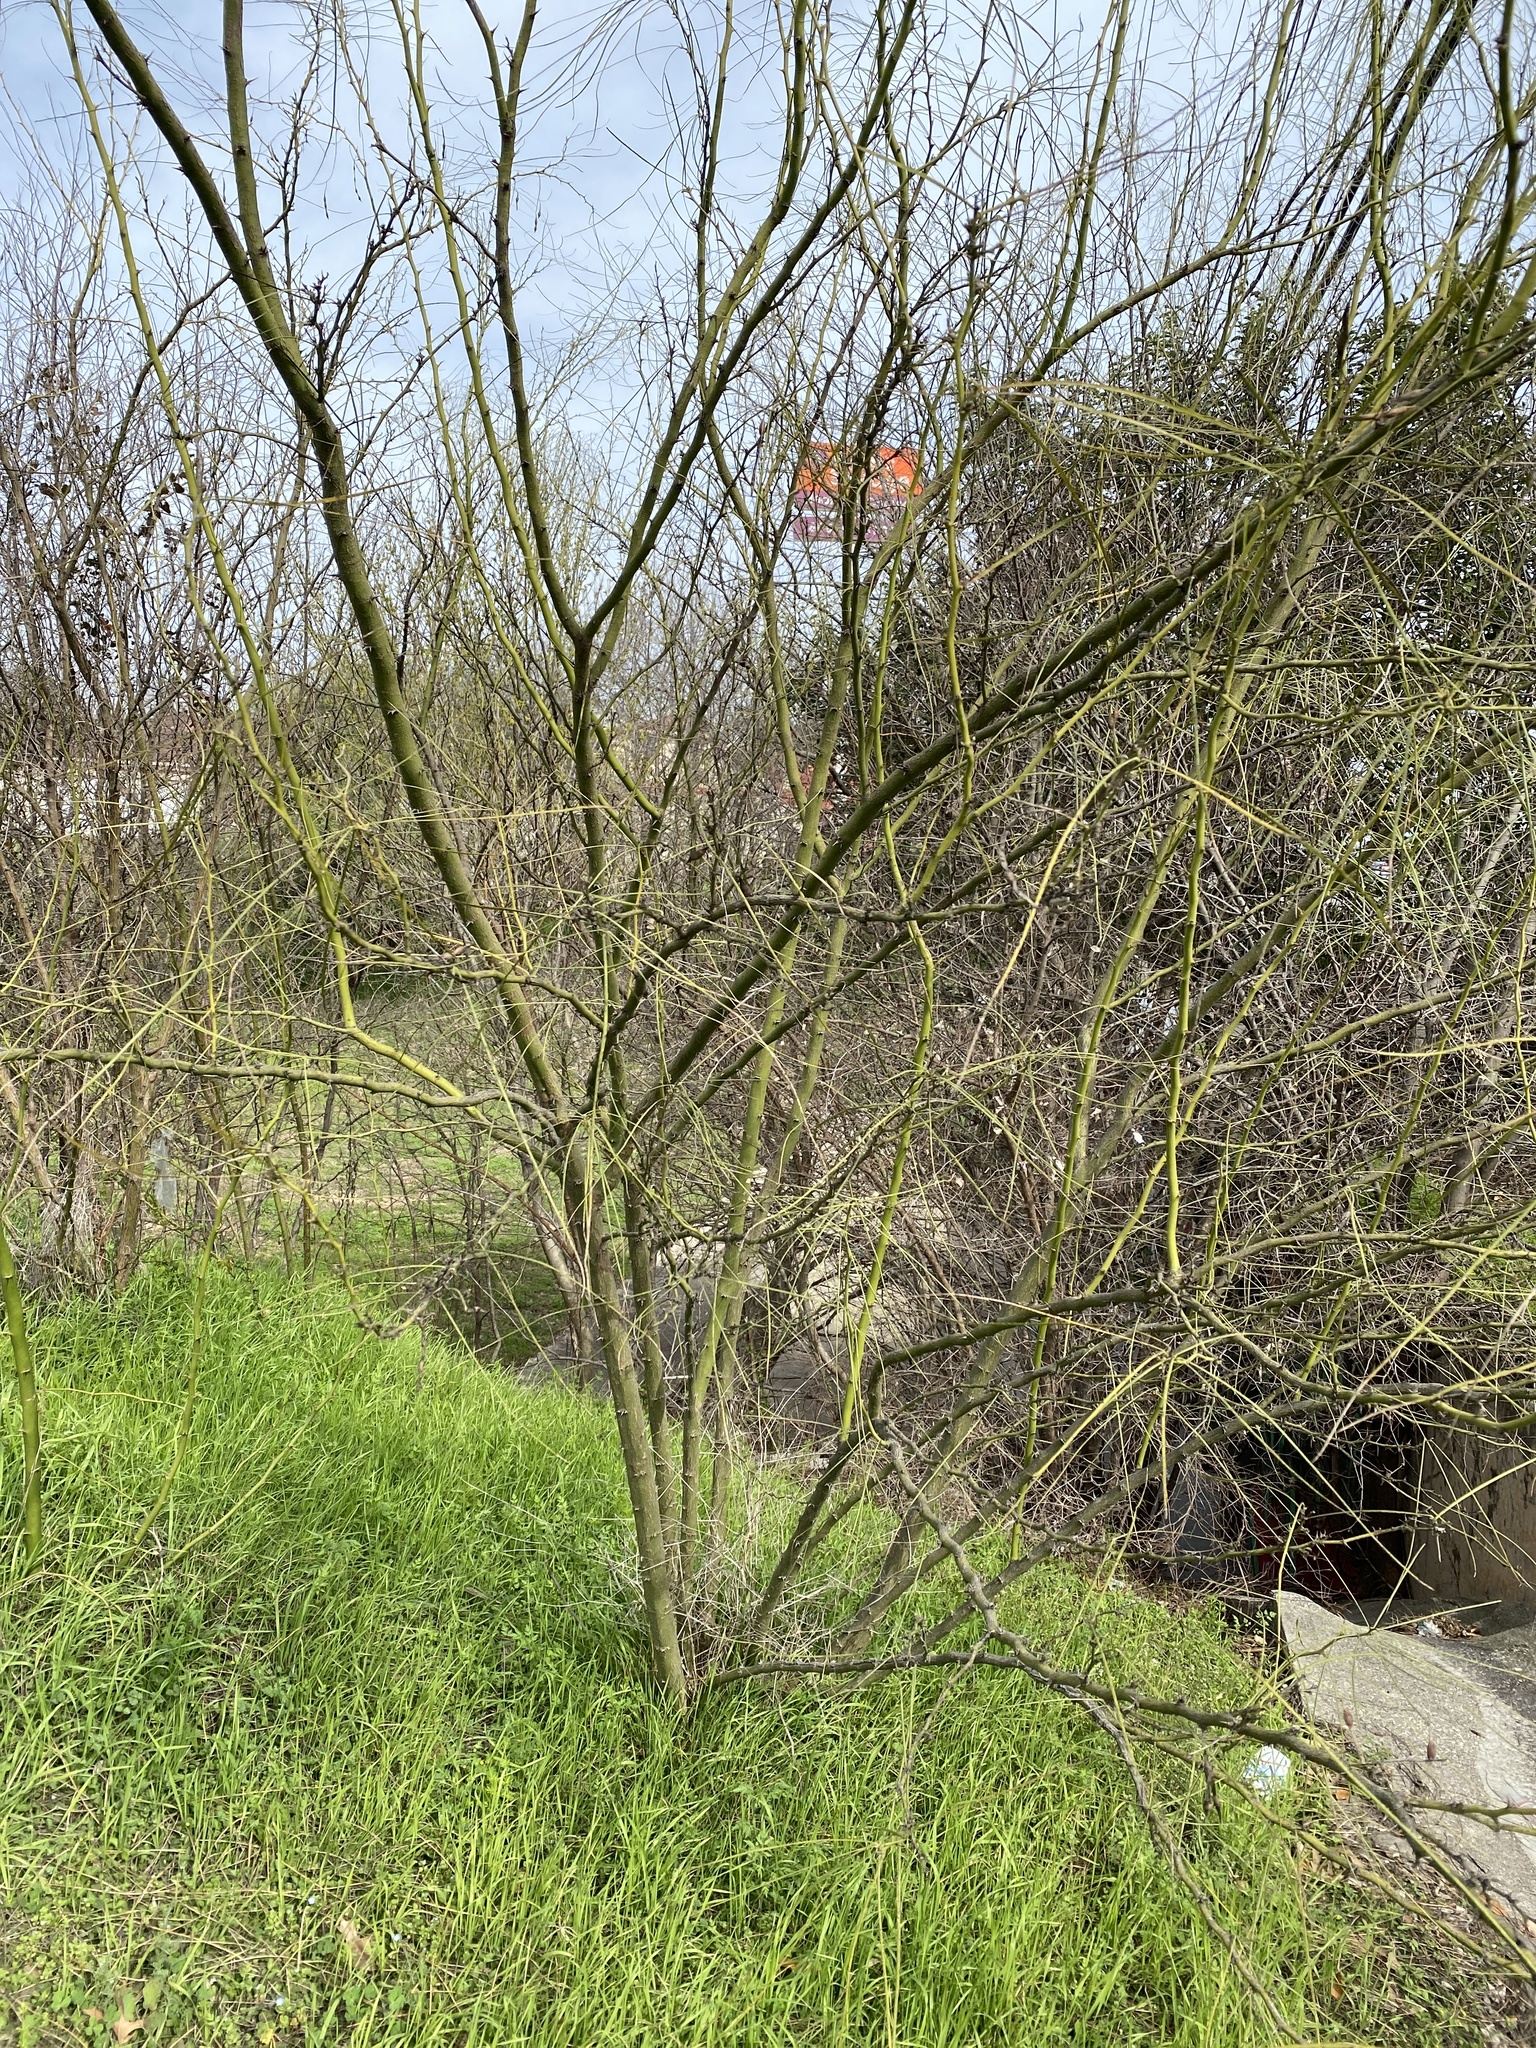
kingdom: Plantae
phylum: Tracheophyta
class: Magnoliopsida
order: Fabales
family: Fabaceae
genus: Parkinsonia
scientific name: Parkinsonia aculeata
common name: Jerusalem thorn
